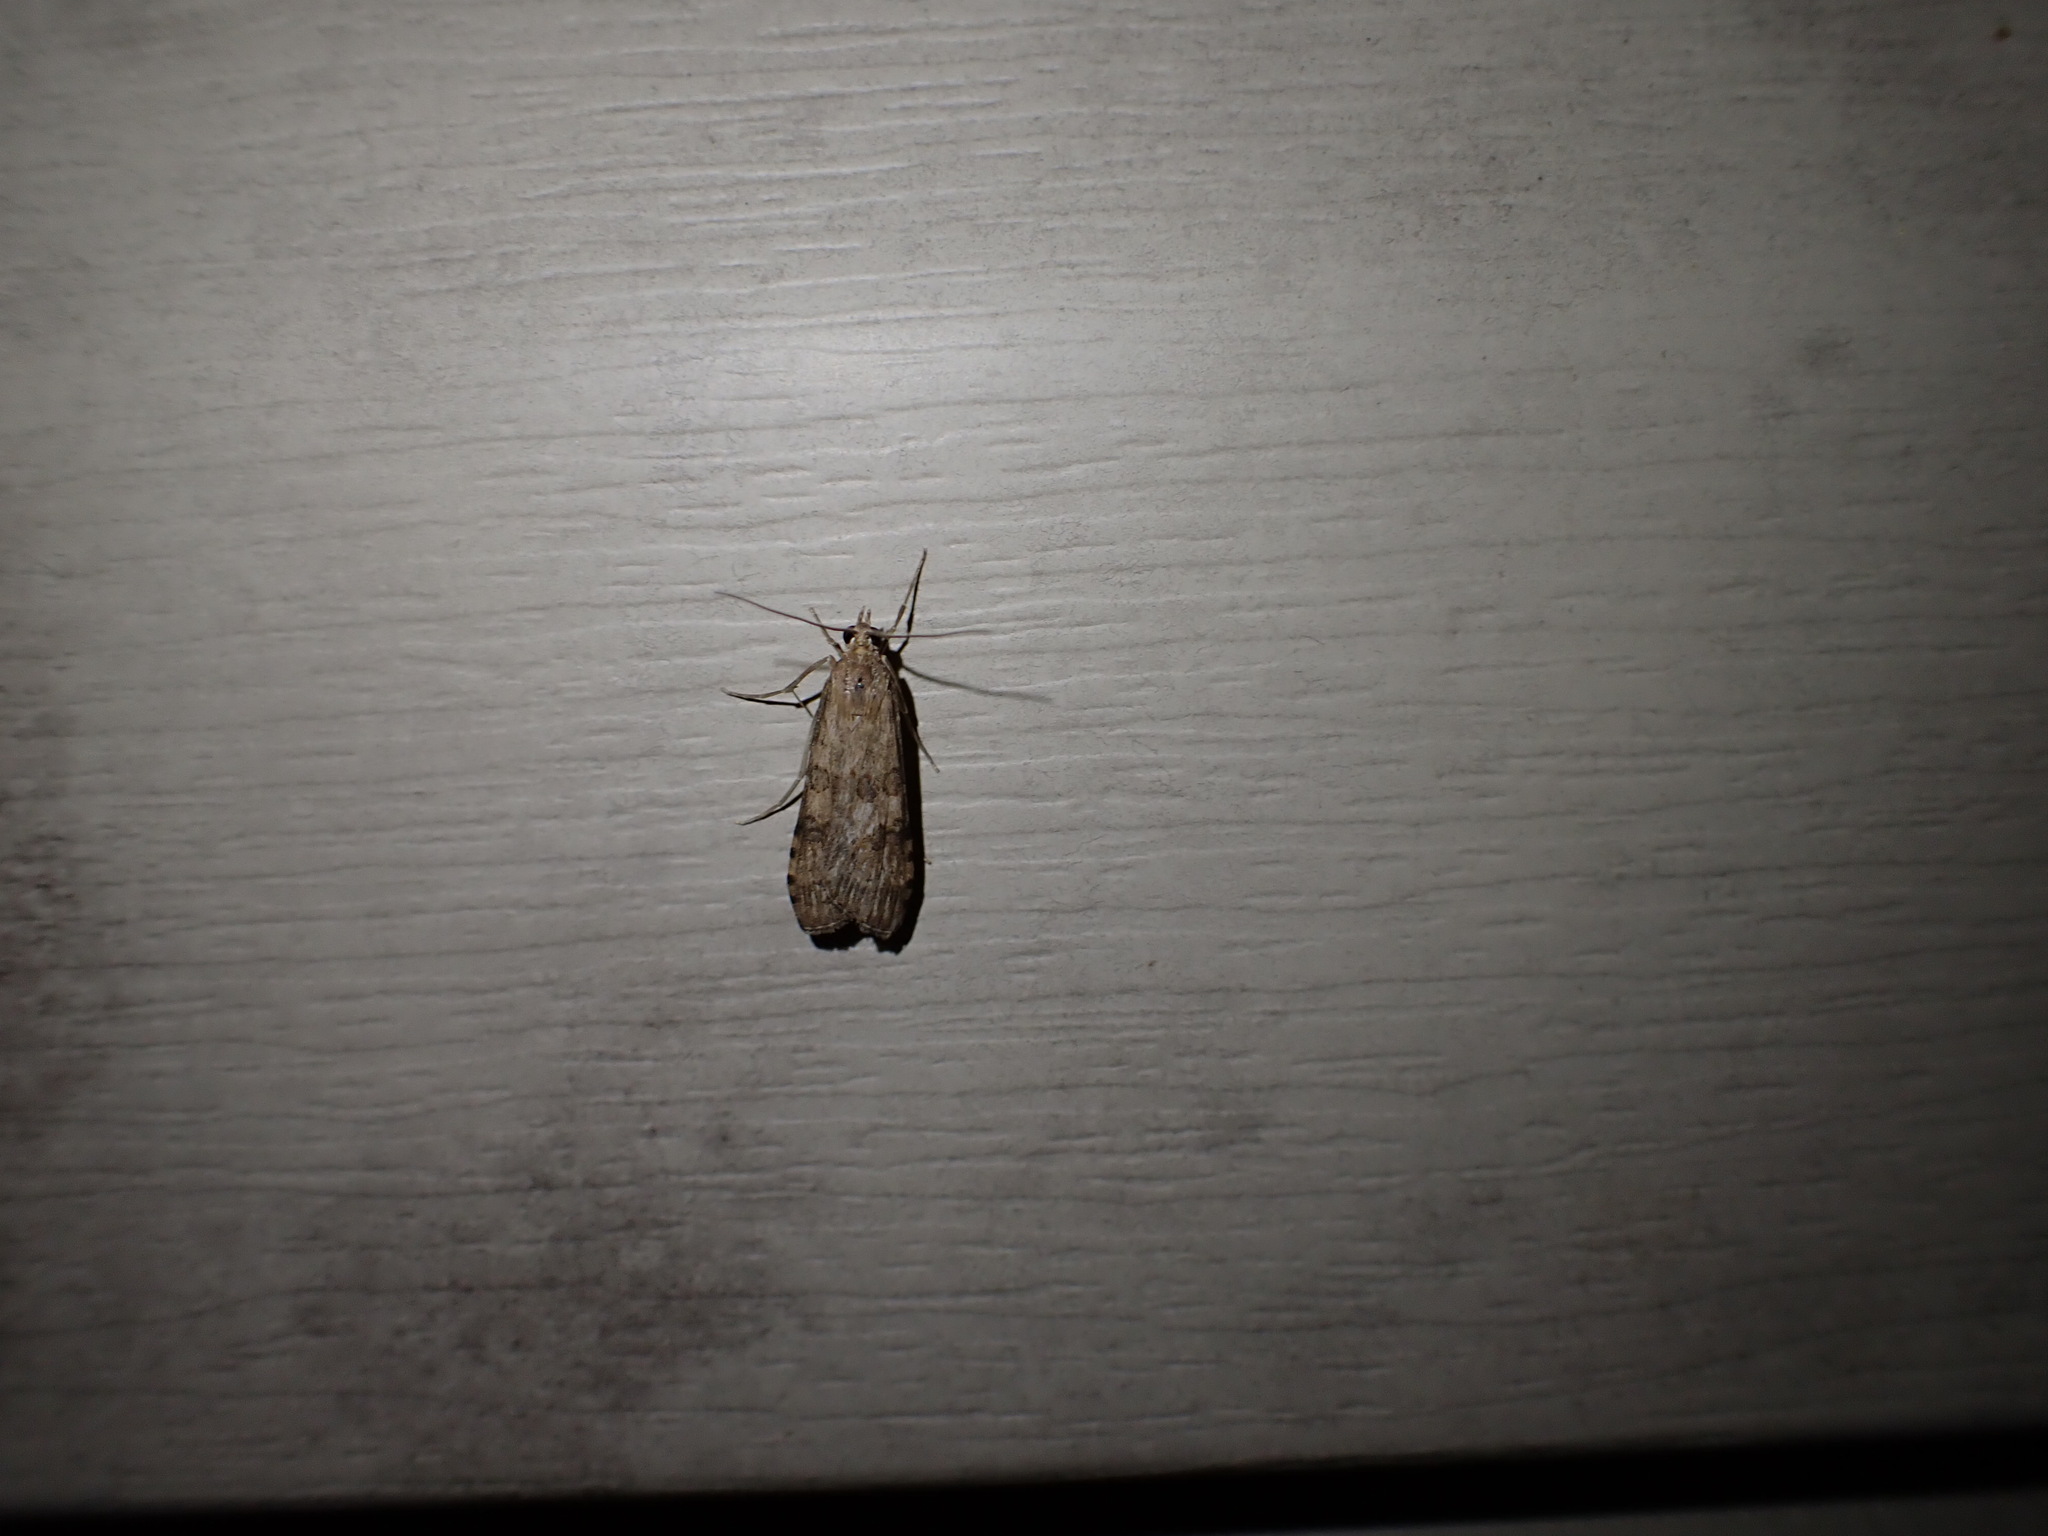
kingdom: Animalia
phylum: Arthropoda
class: Insecta
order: Lepidoptera
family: Crambidae
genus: Nomophila
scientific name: Nomophila nearctica
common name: American rush veneer
